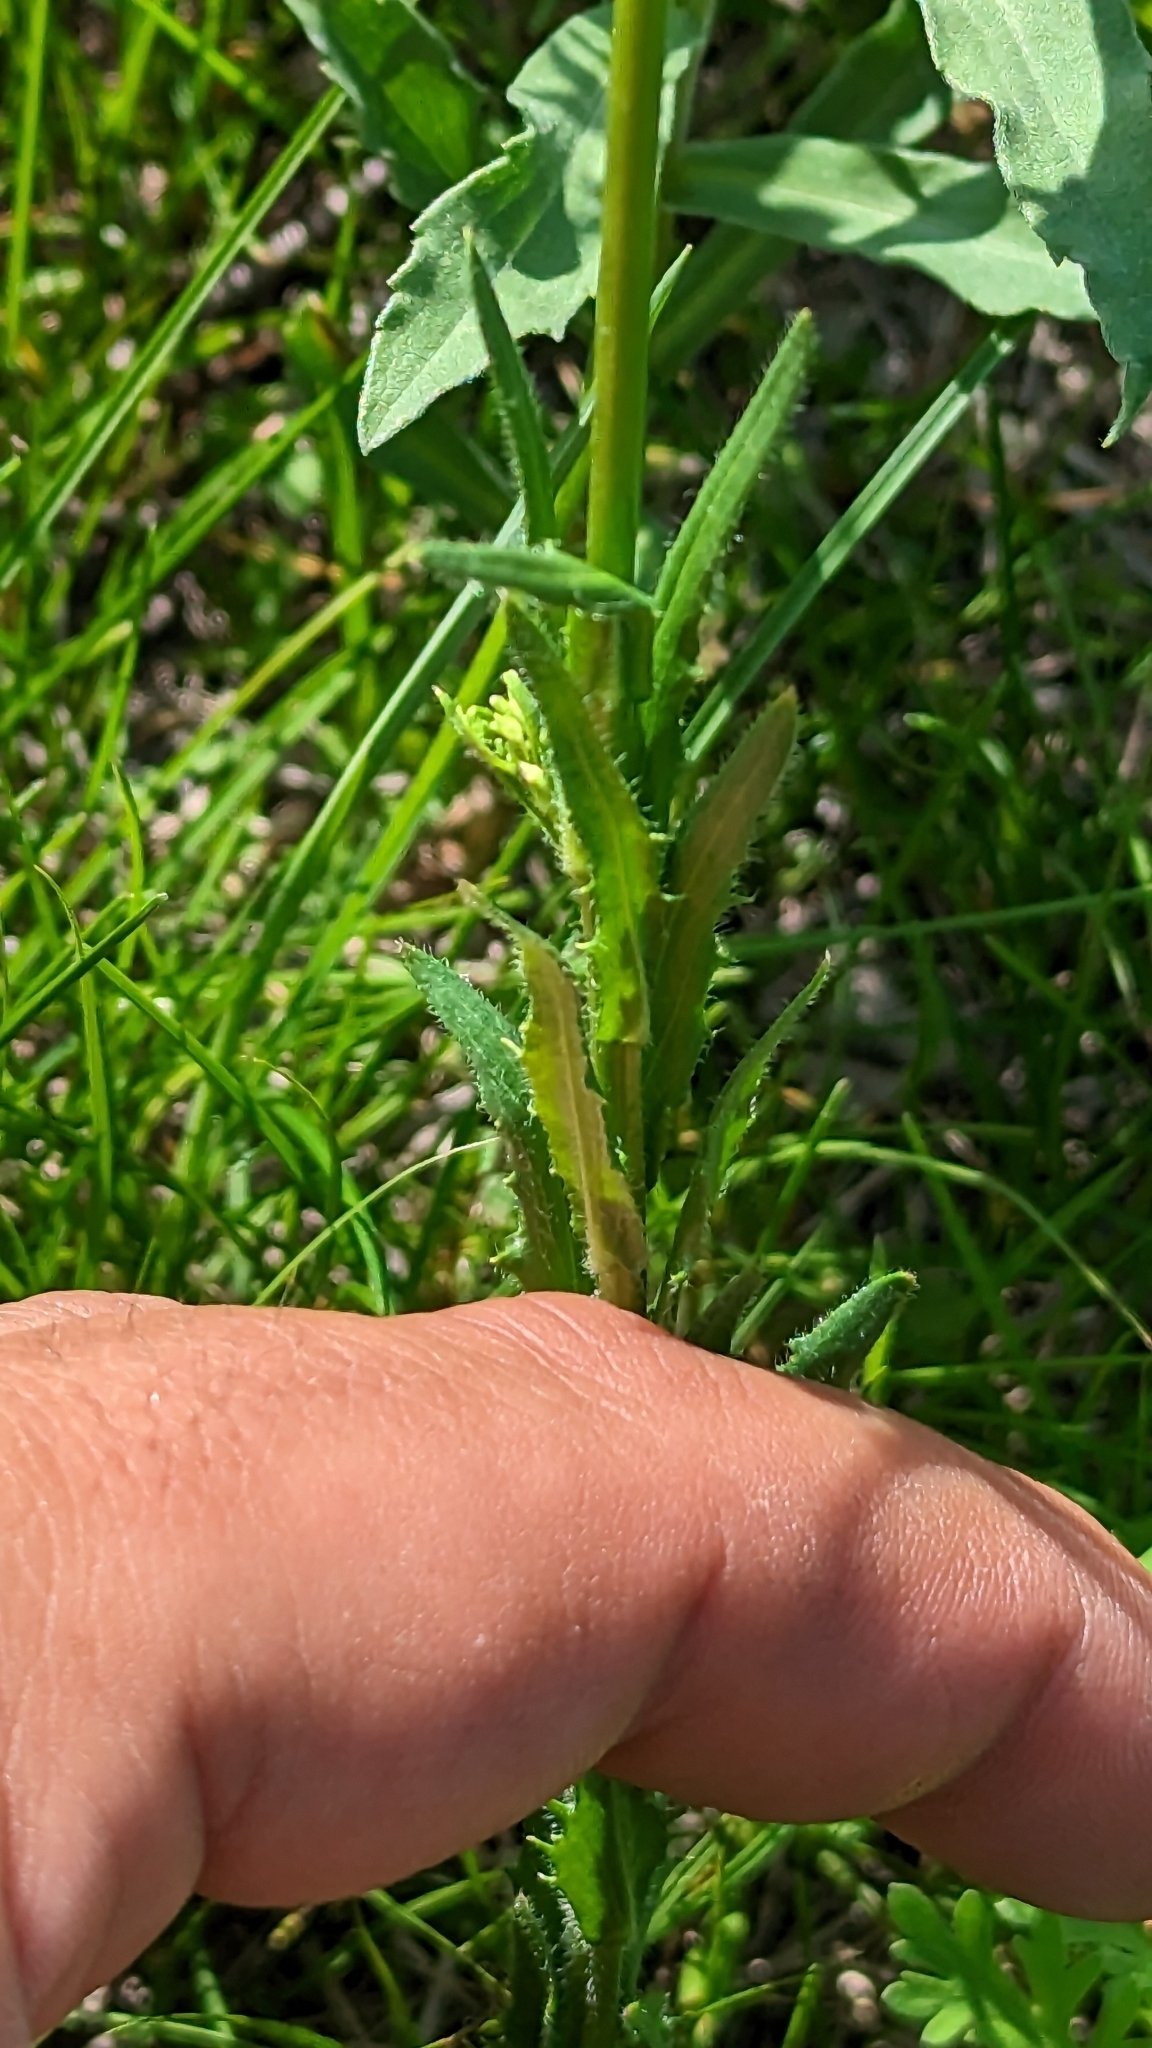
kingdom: Plantae
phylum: Tracheophyta
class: Magnoliopsida
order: Brassicales
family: Brassicaceae
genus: Arabis
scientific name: Arabis pycnocarpa
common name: Blushing rockcress
